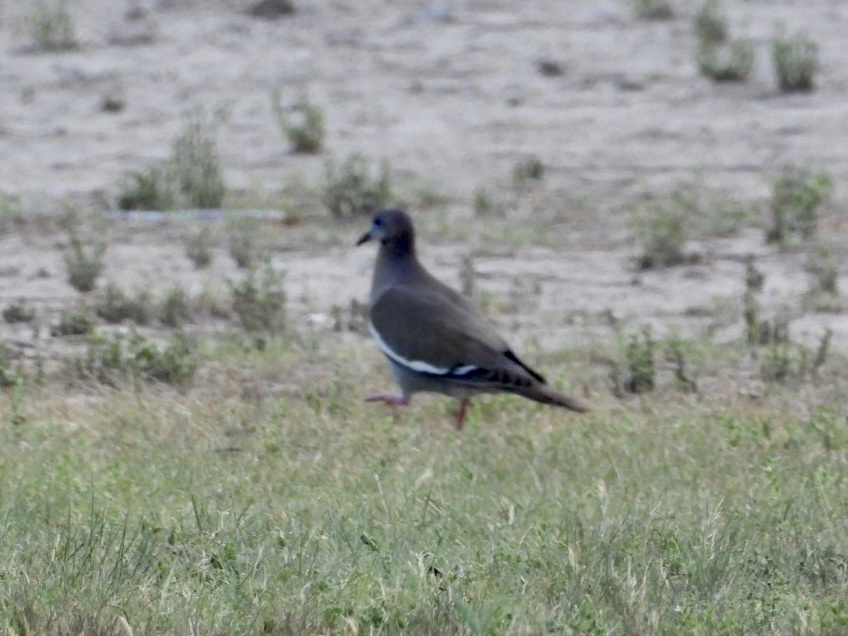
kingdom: Animalia
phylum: Chordata
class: Aves
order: Columbiformes
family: Columbidae
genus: Zenaida
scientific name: Zenaida asiatica
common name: White-winged dove
